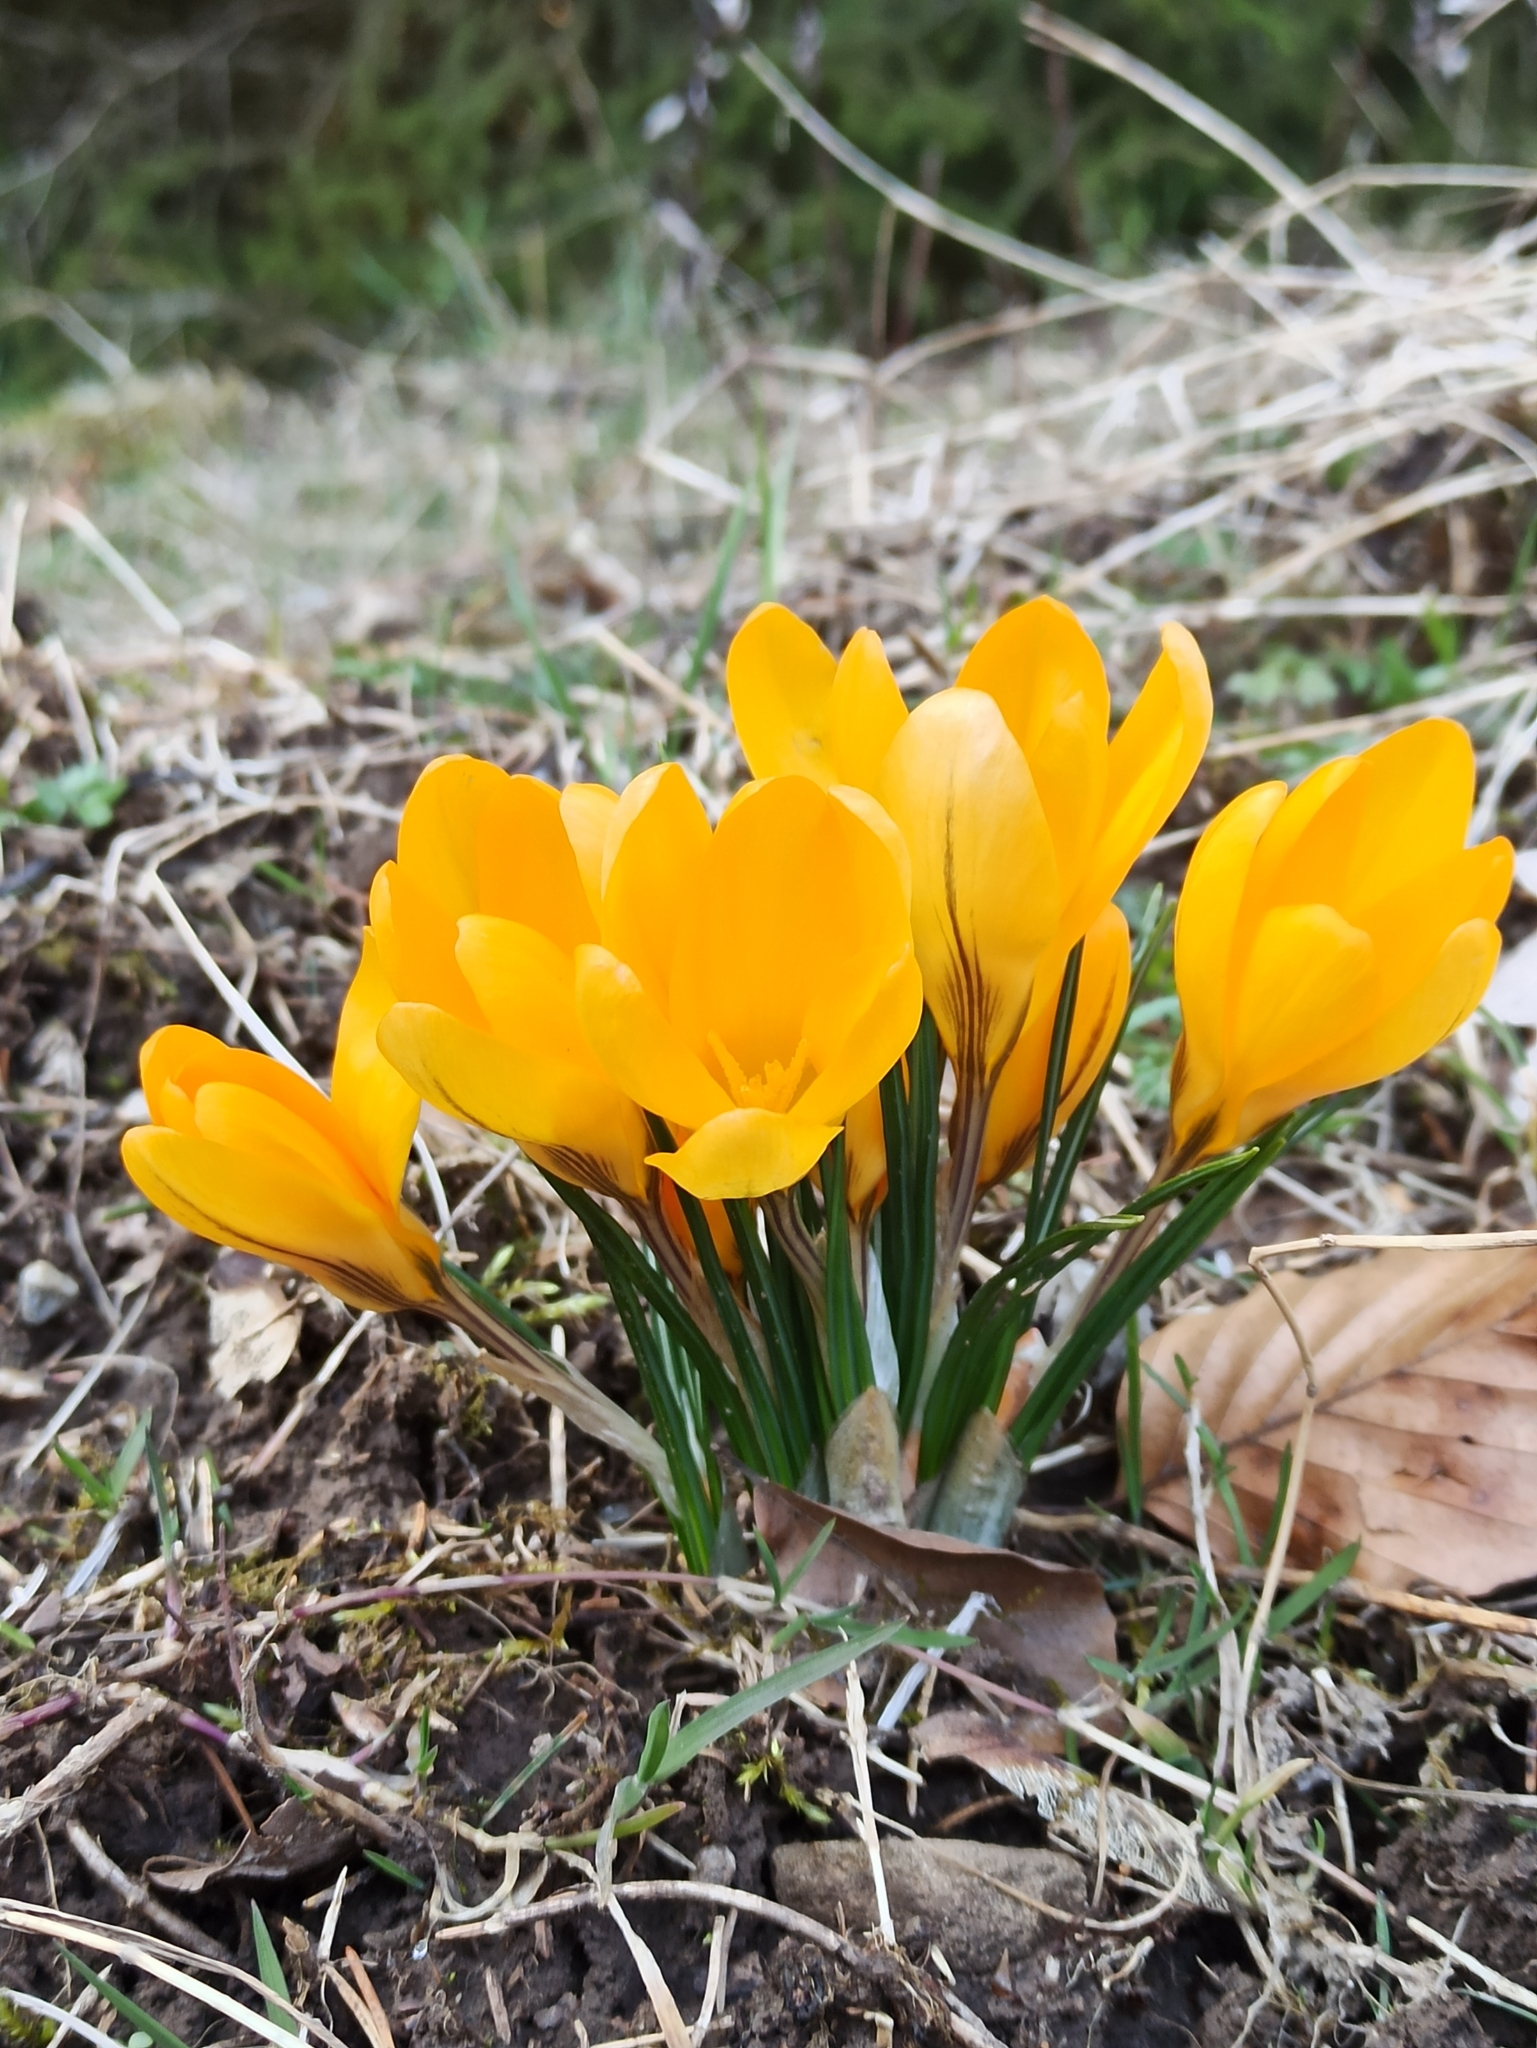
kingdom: Plantae
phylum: Tracheophyta
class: Liliopsida
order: Asparagales
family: Iridaceae
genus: Crocus
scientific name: Crocus luteus
